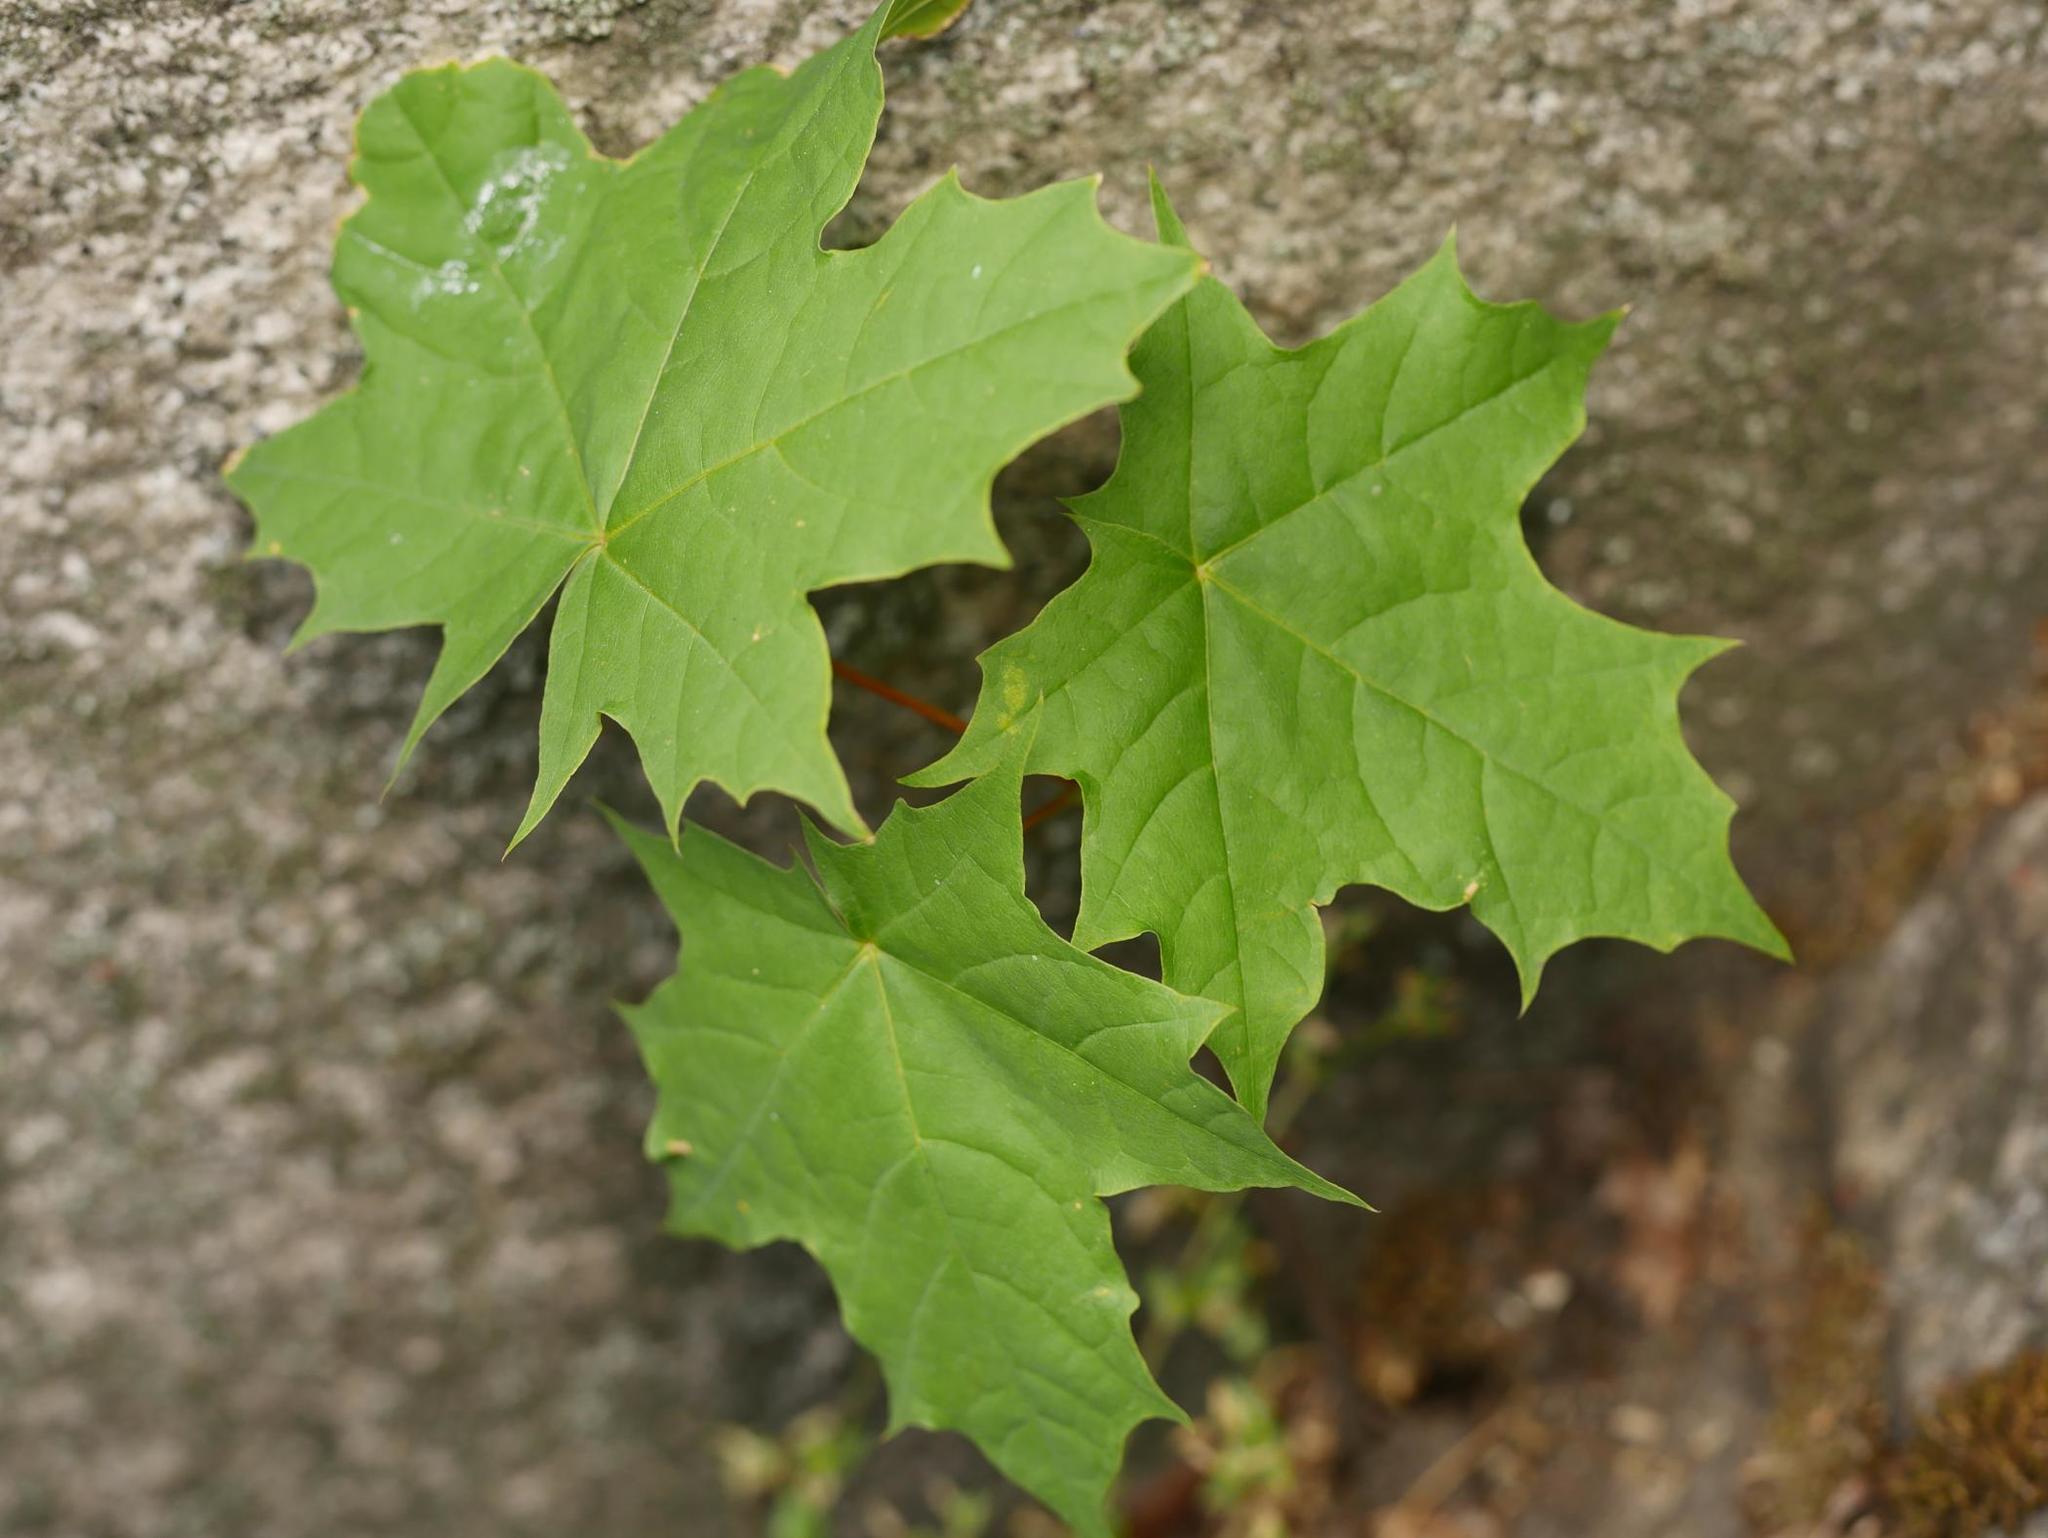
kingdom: Plantae
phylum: Tracheophyta
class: Magnoliopsida
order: Sapindales
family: Sapindaceae
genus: Acer
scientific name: Acer platanoides
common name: Norway maple
